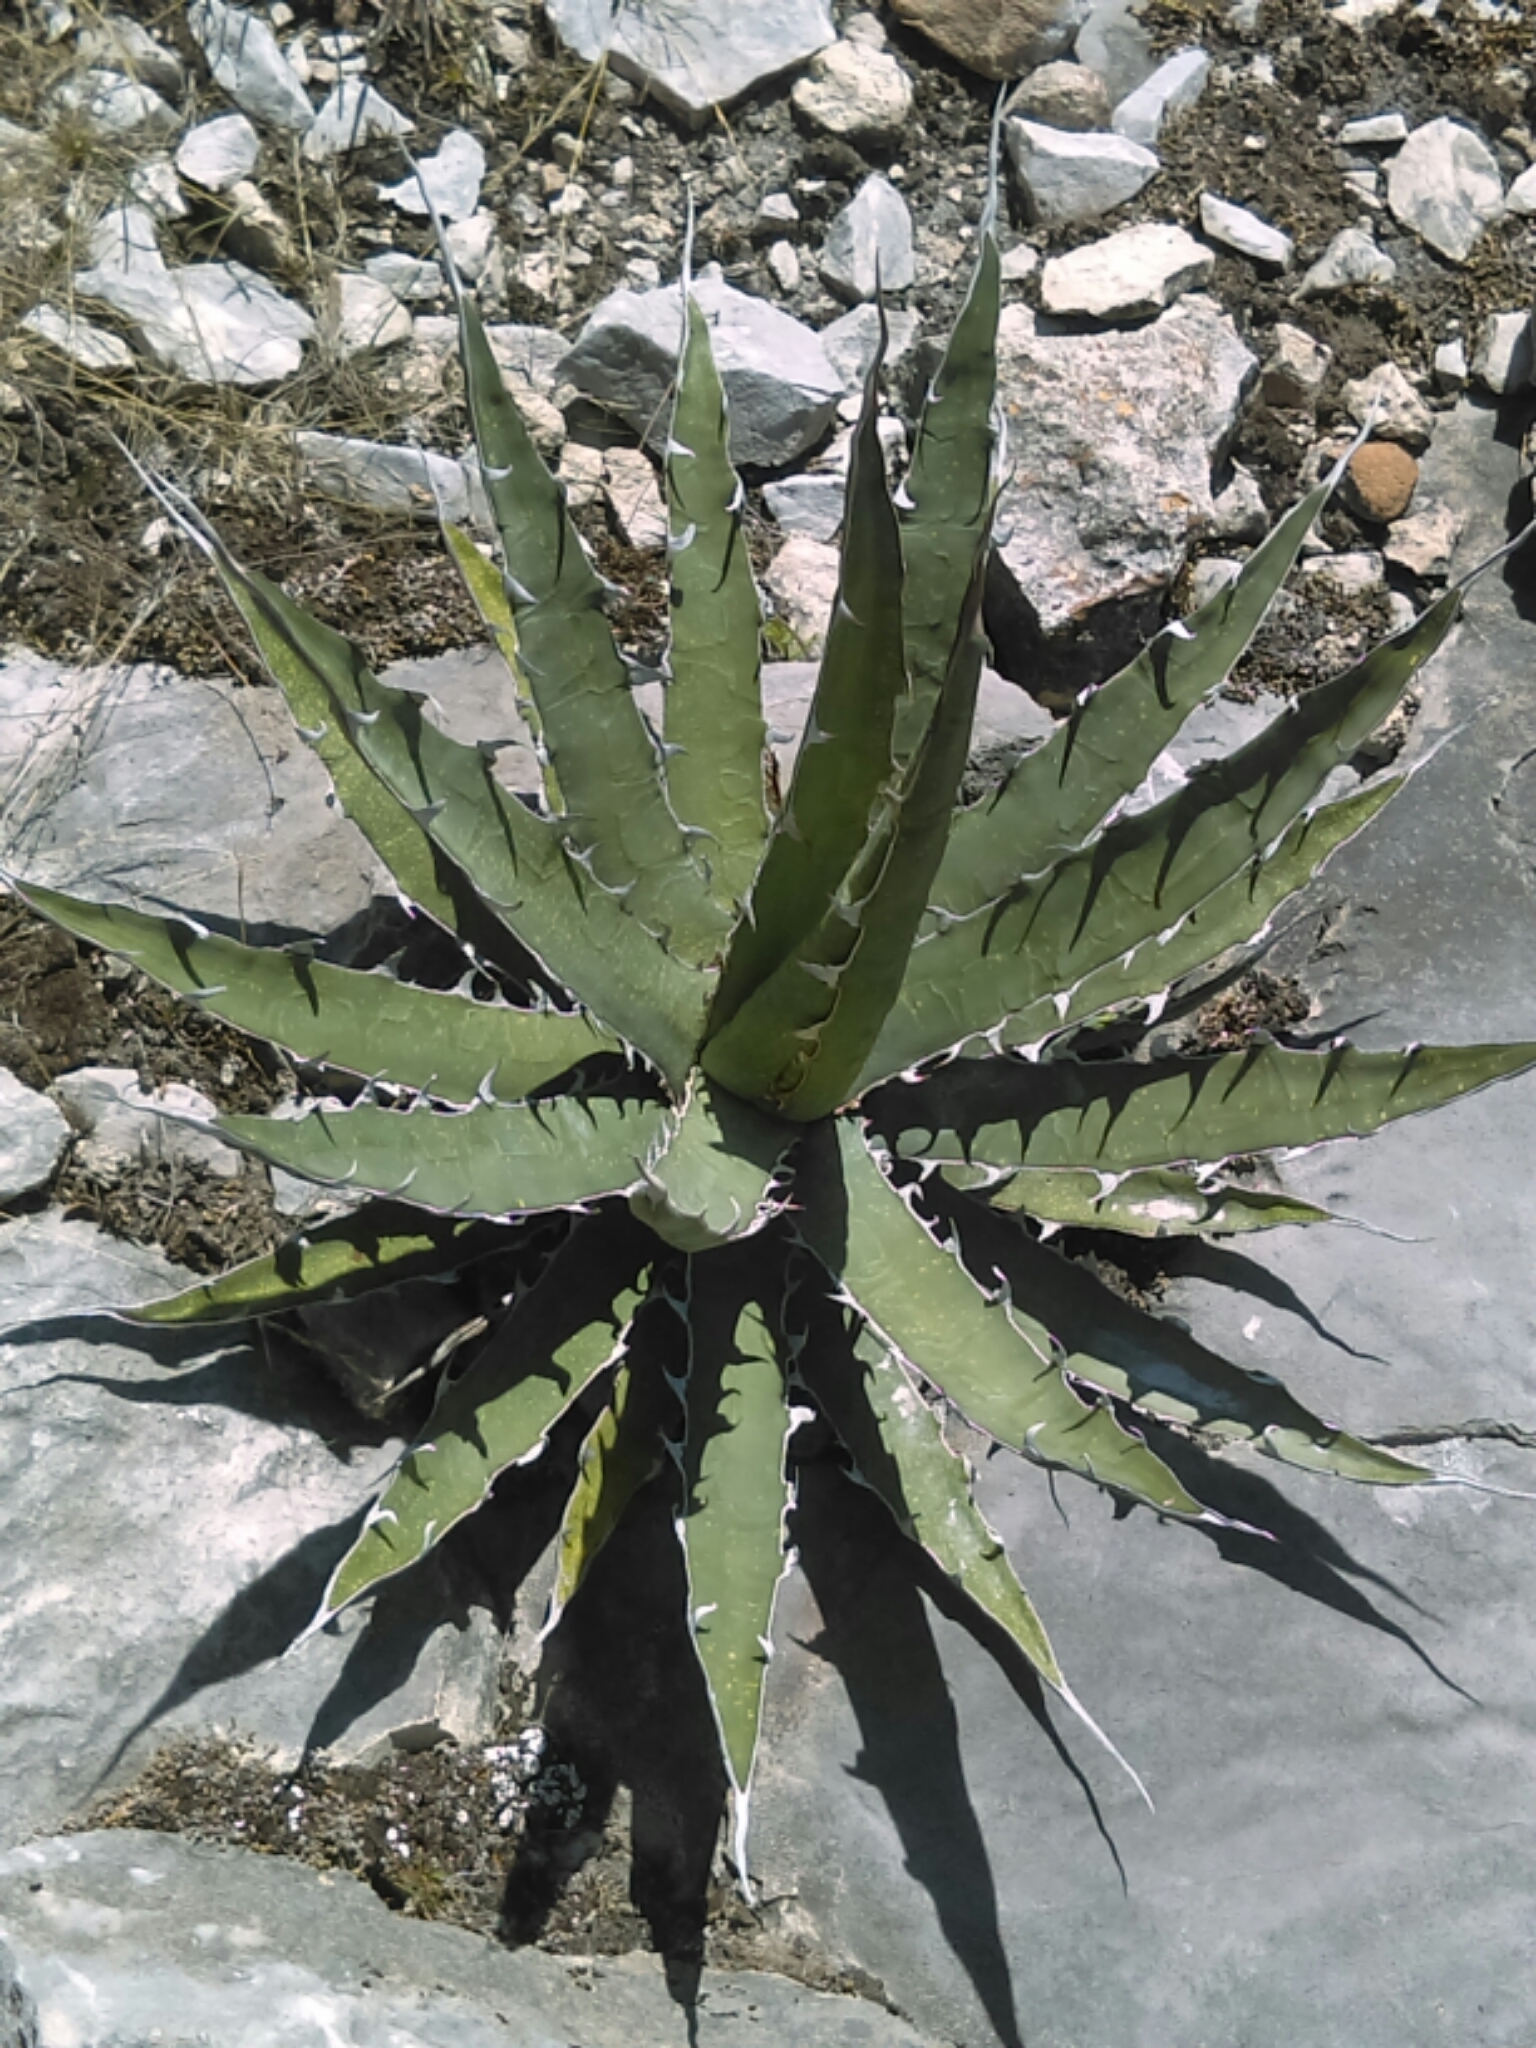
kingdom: Plantae
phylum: Tracheophyta
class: Liliopsida
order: Asparagales
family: Asparagaceae
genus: Agave
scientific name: Agave xylonacantha
